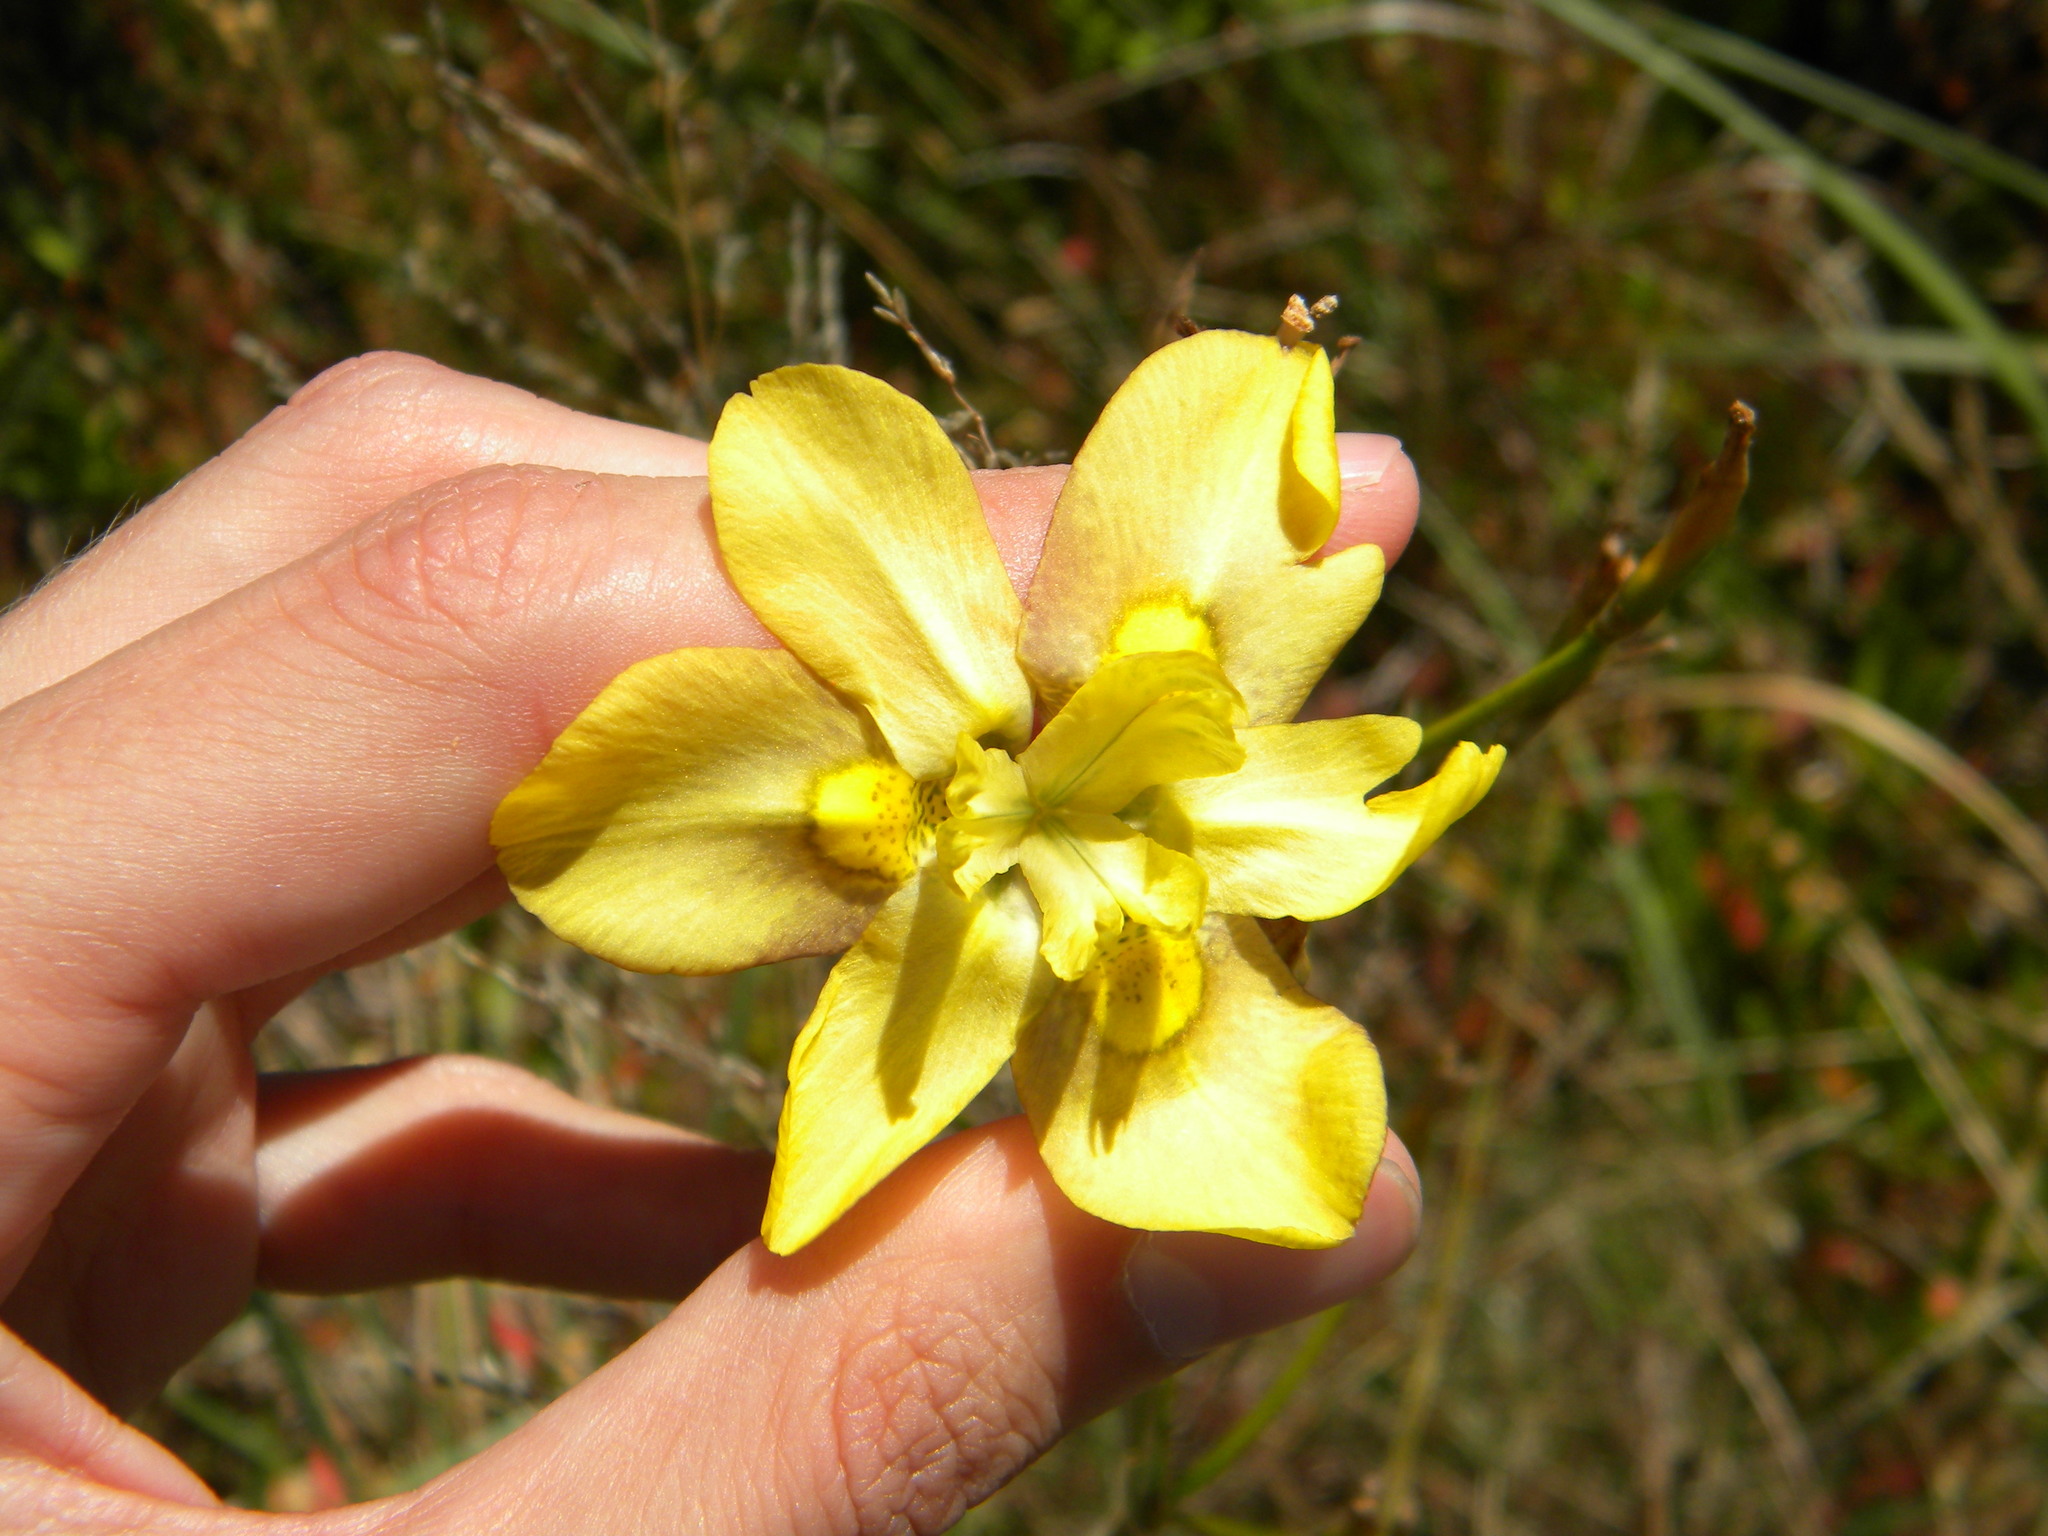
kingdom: Plantae
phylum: Tracheophyta
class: Liliopsida
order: Asparagales
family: Iridaceae
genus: Moraea
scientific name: Moraea ramosissima
